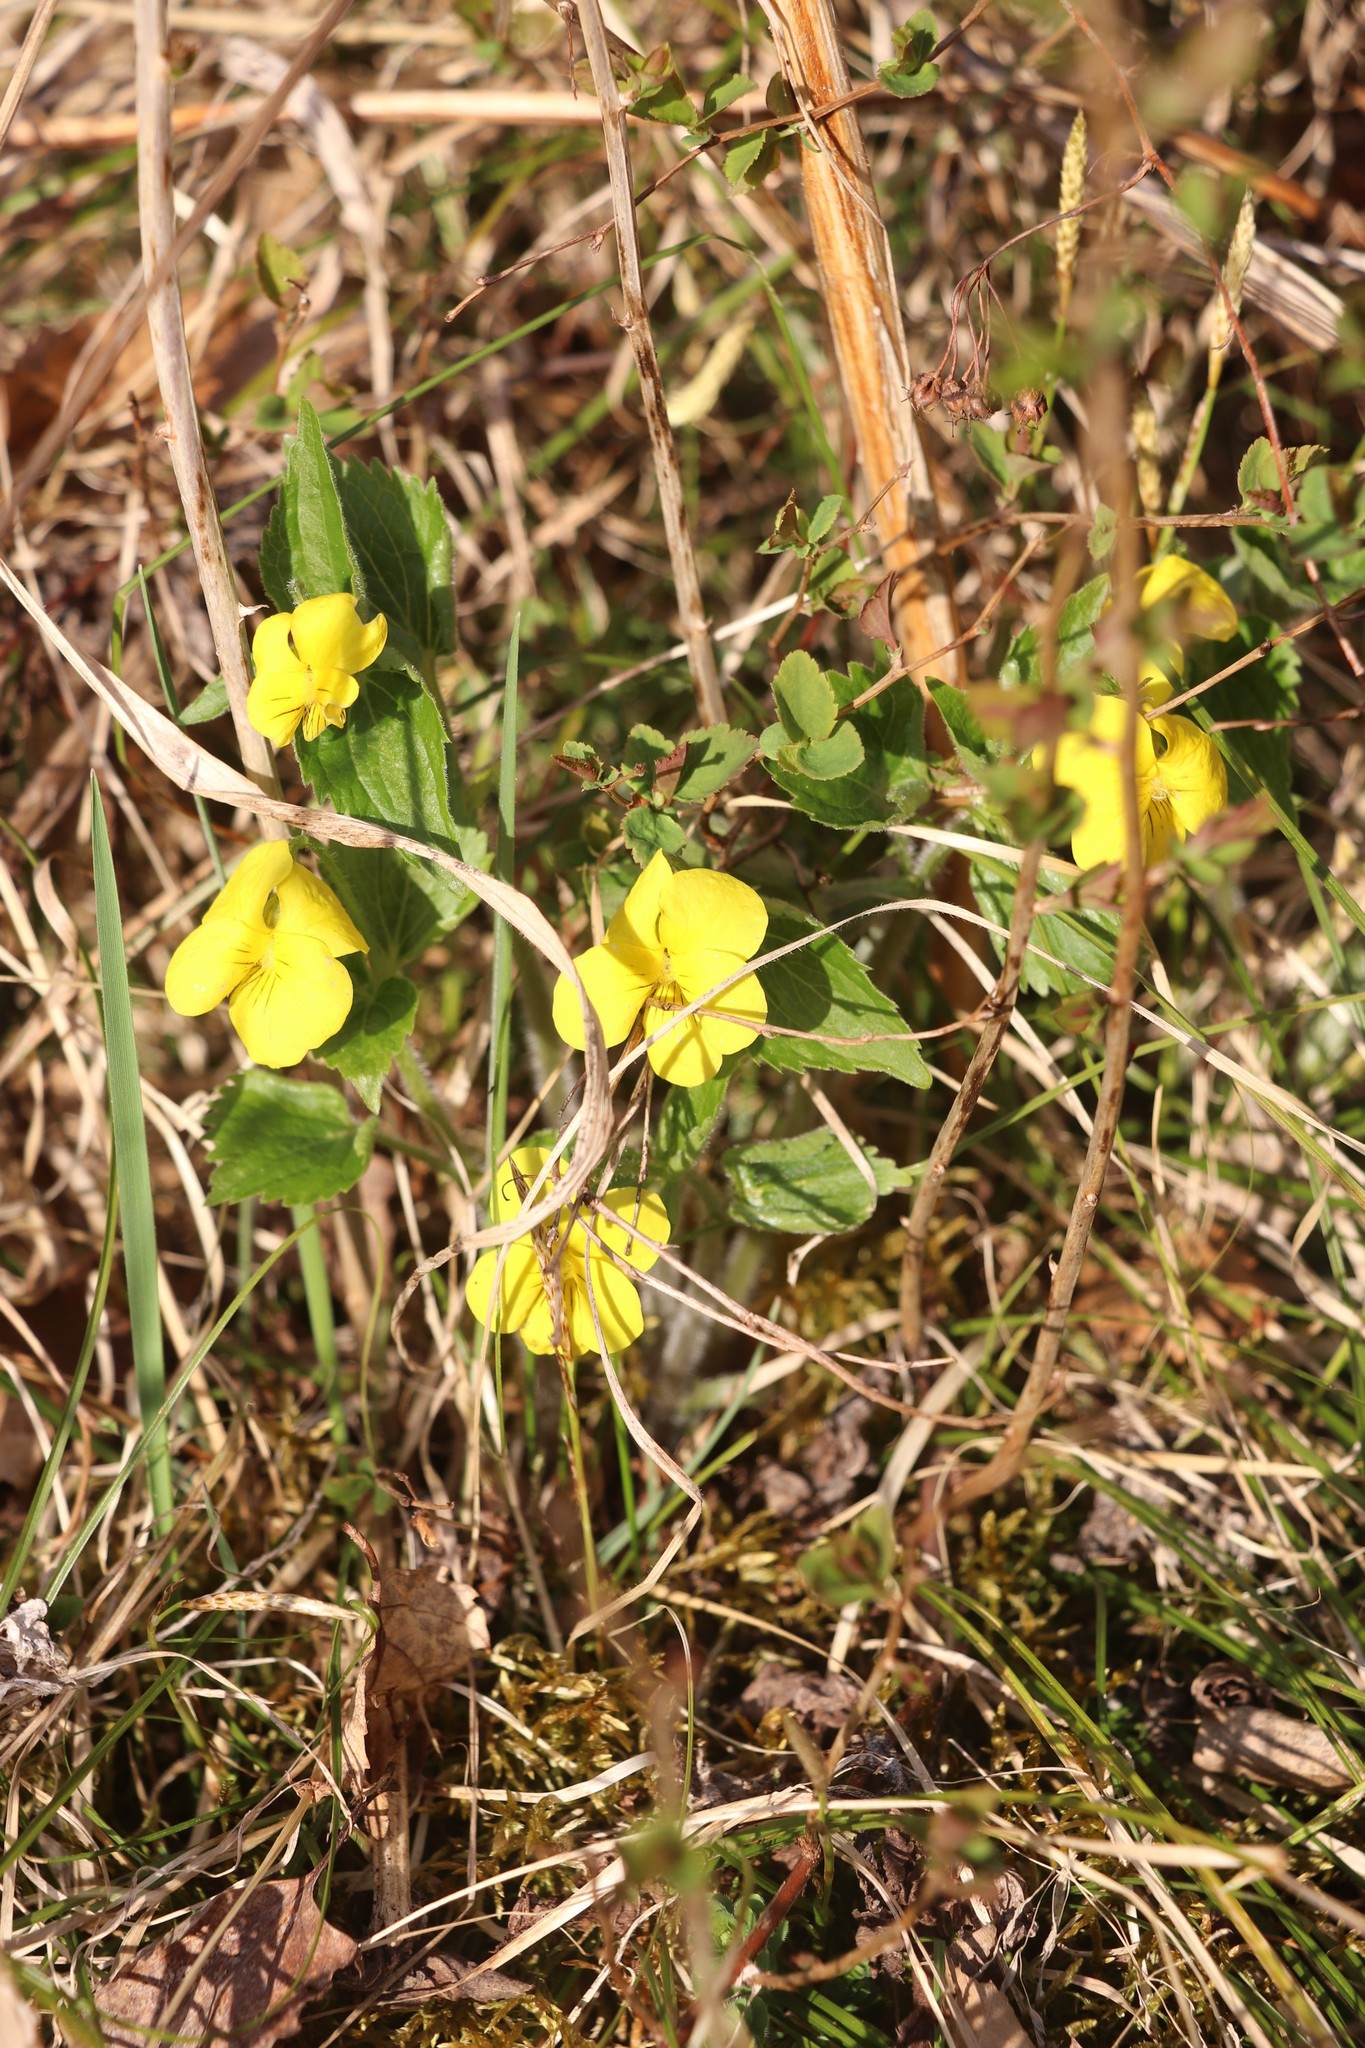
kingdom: Plantae
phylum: Tracheophyta
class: Magnoliopsida
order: Malpighiales
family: Violaceae
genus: Viola
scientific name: Viola uniflora
